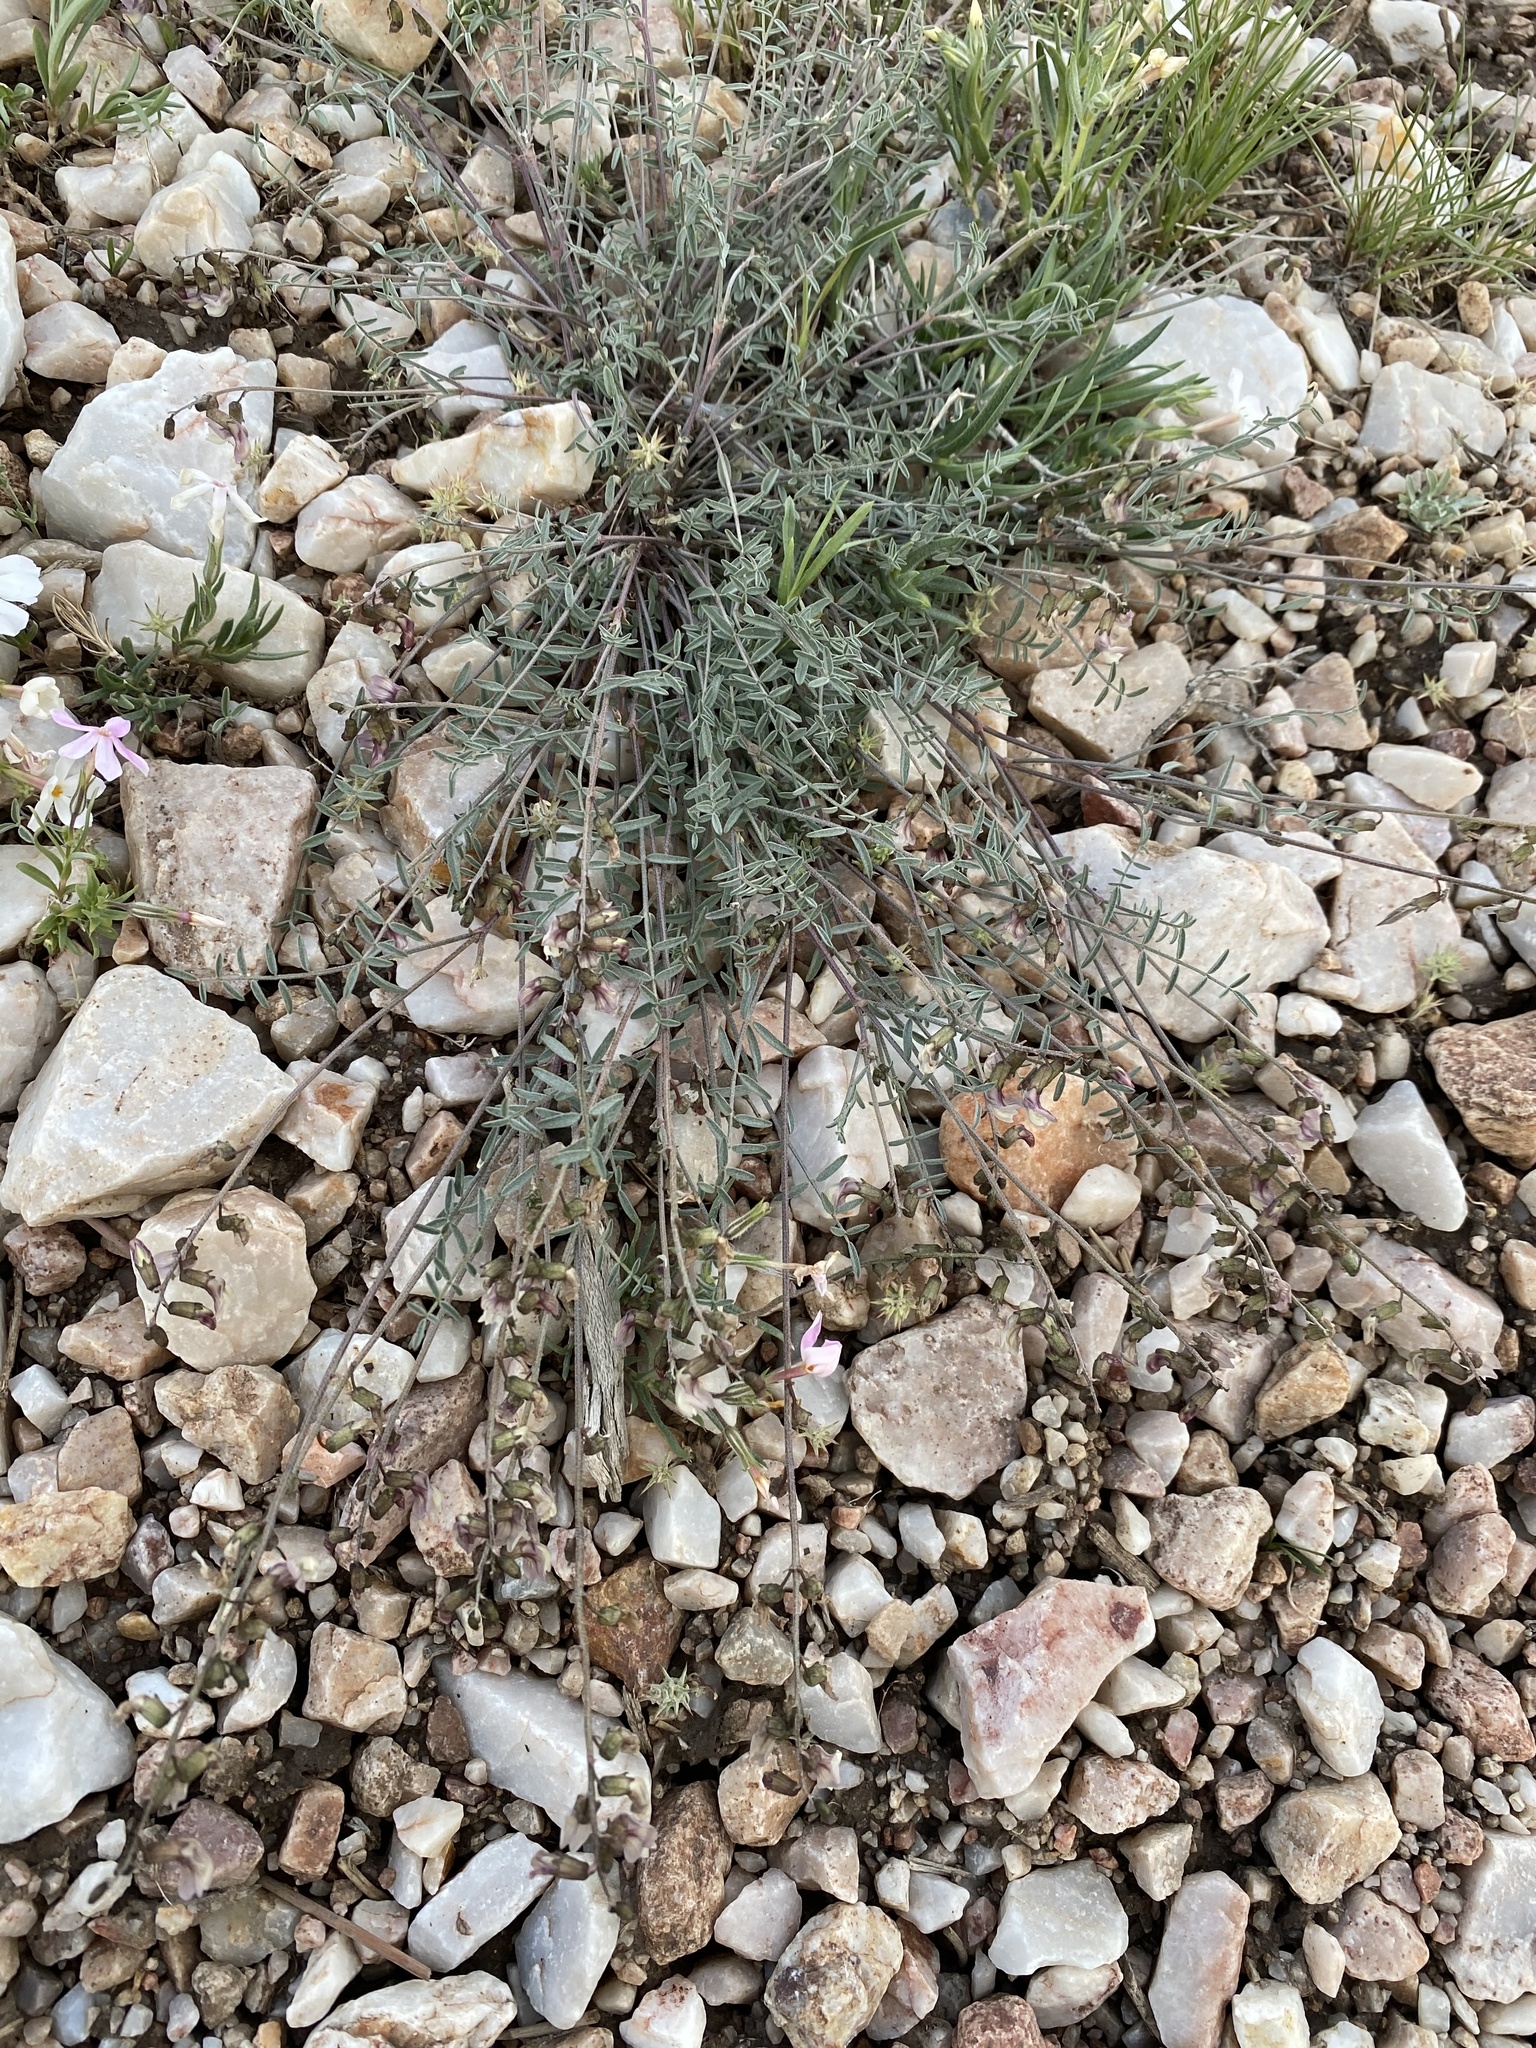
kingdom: Plantae
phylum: Tracheophyta
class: Magnoliopsida
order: Fabales
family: Fabaceae
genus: Astragalus
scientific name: Astragalus atratus
